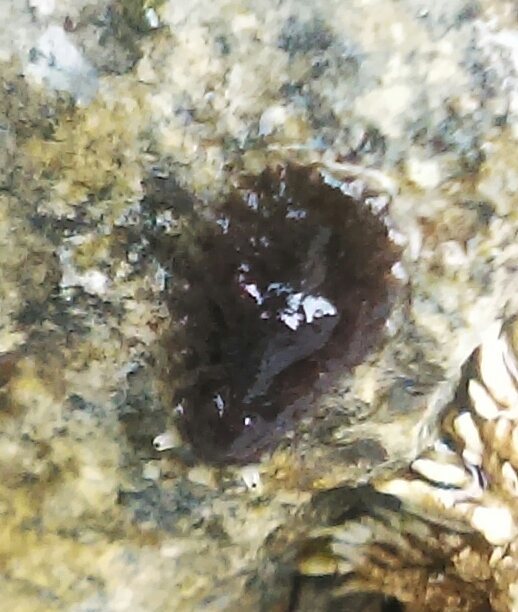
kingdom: Animalia
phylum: Mollusca
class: Gastropoda
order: Systellommatophora
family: Onchidiidae
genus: Onchidella
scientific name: Onchidella carpenteri
